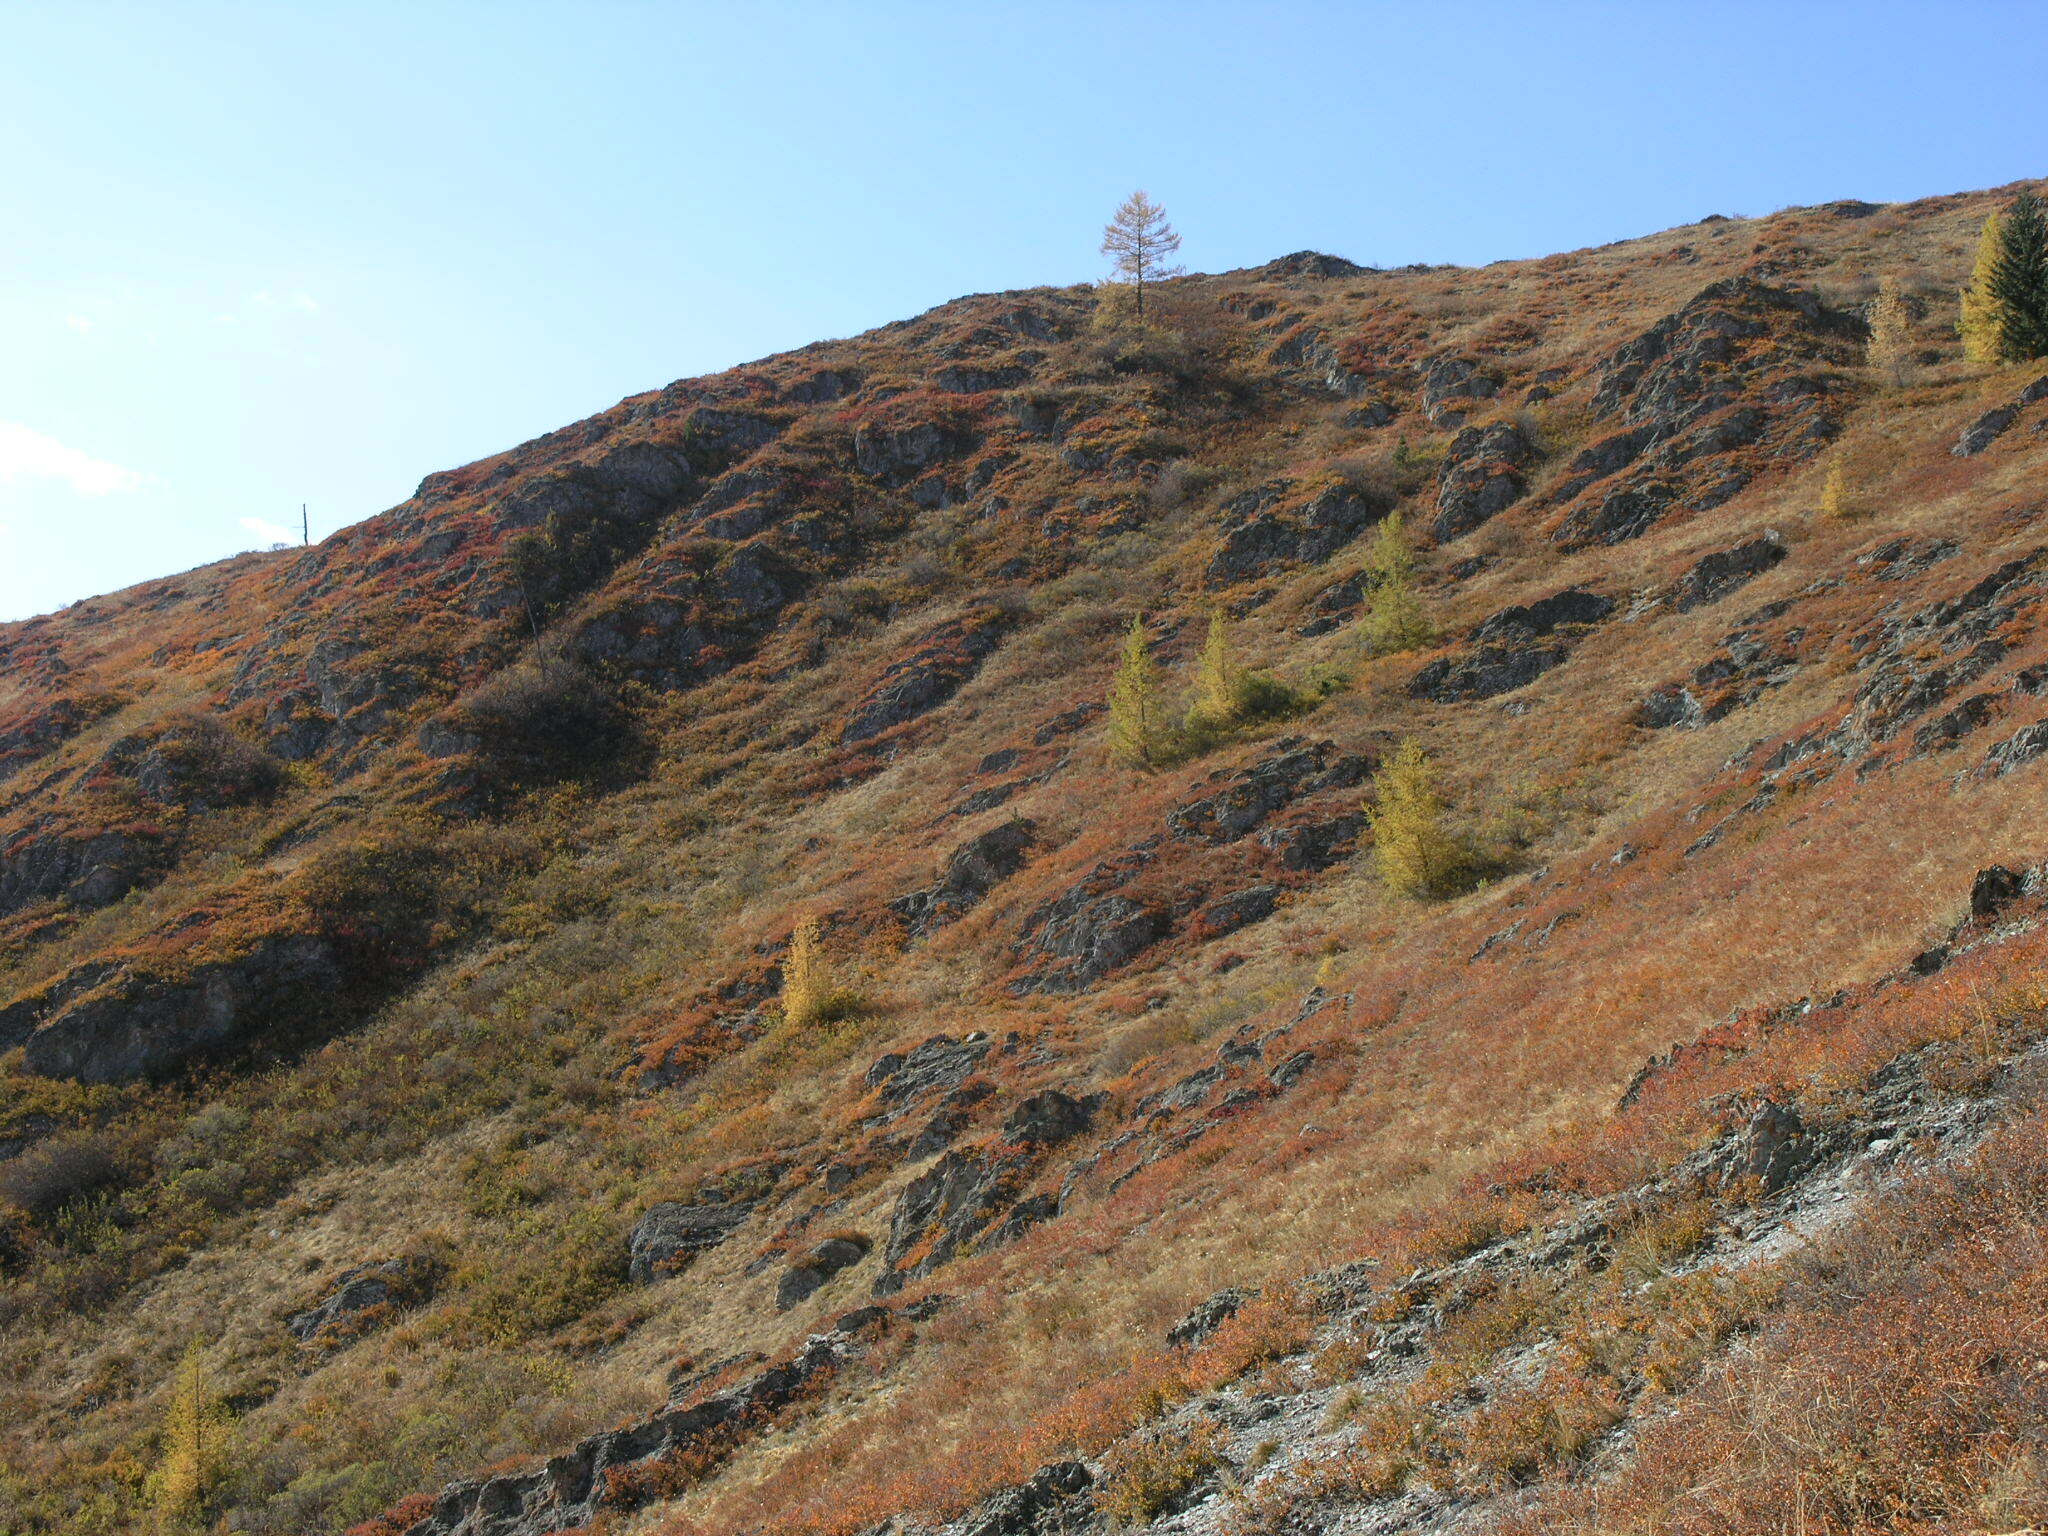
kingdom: Plantae
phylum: Tracheophyta
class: Pinopsida
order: Pinales
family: Pinaceae
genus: Larix
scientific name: Larix sibirica
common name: Siberian larch
